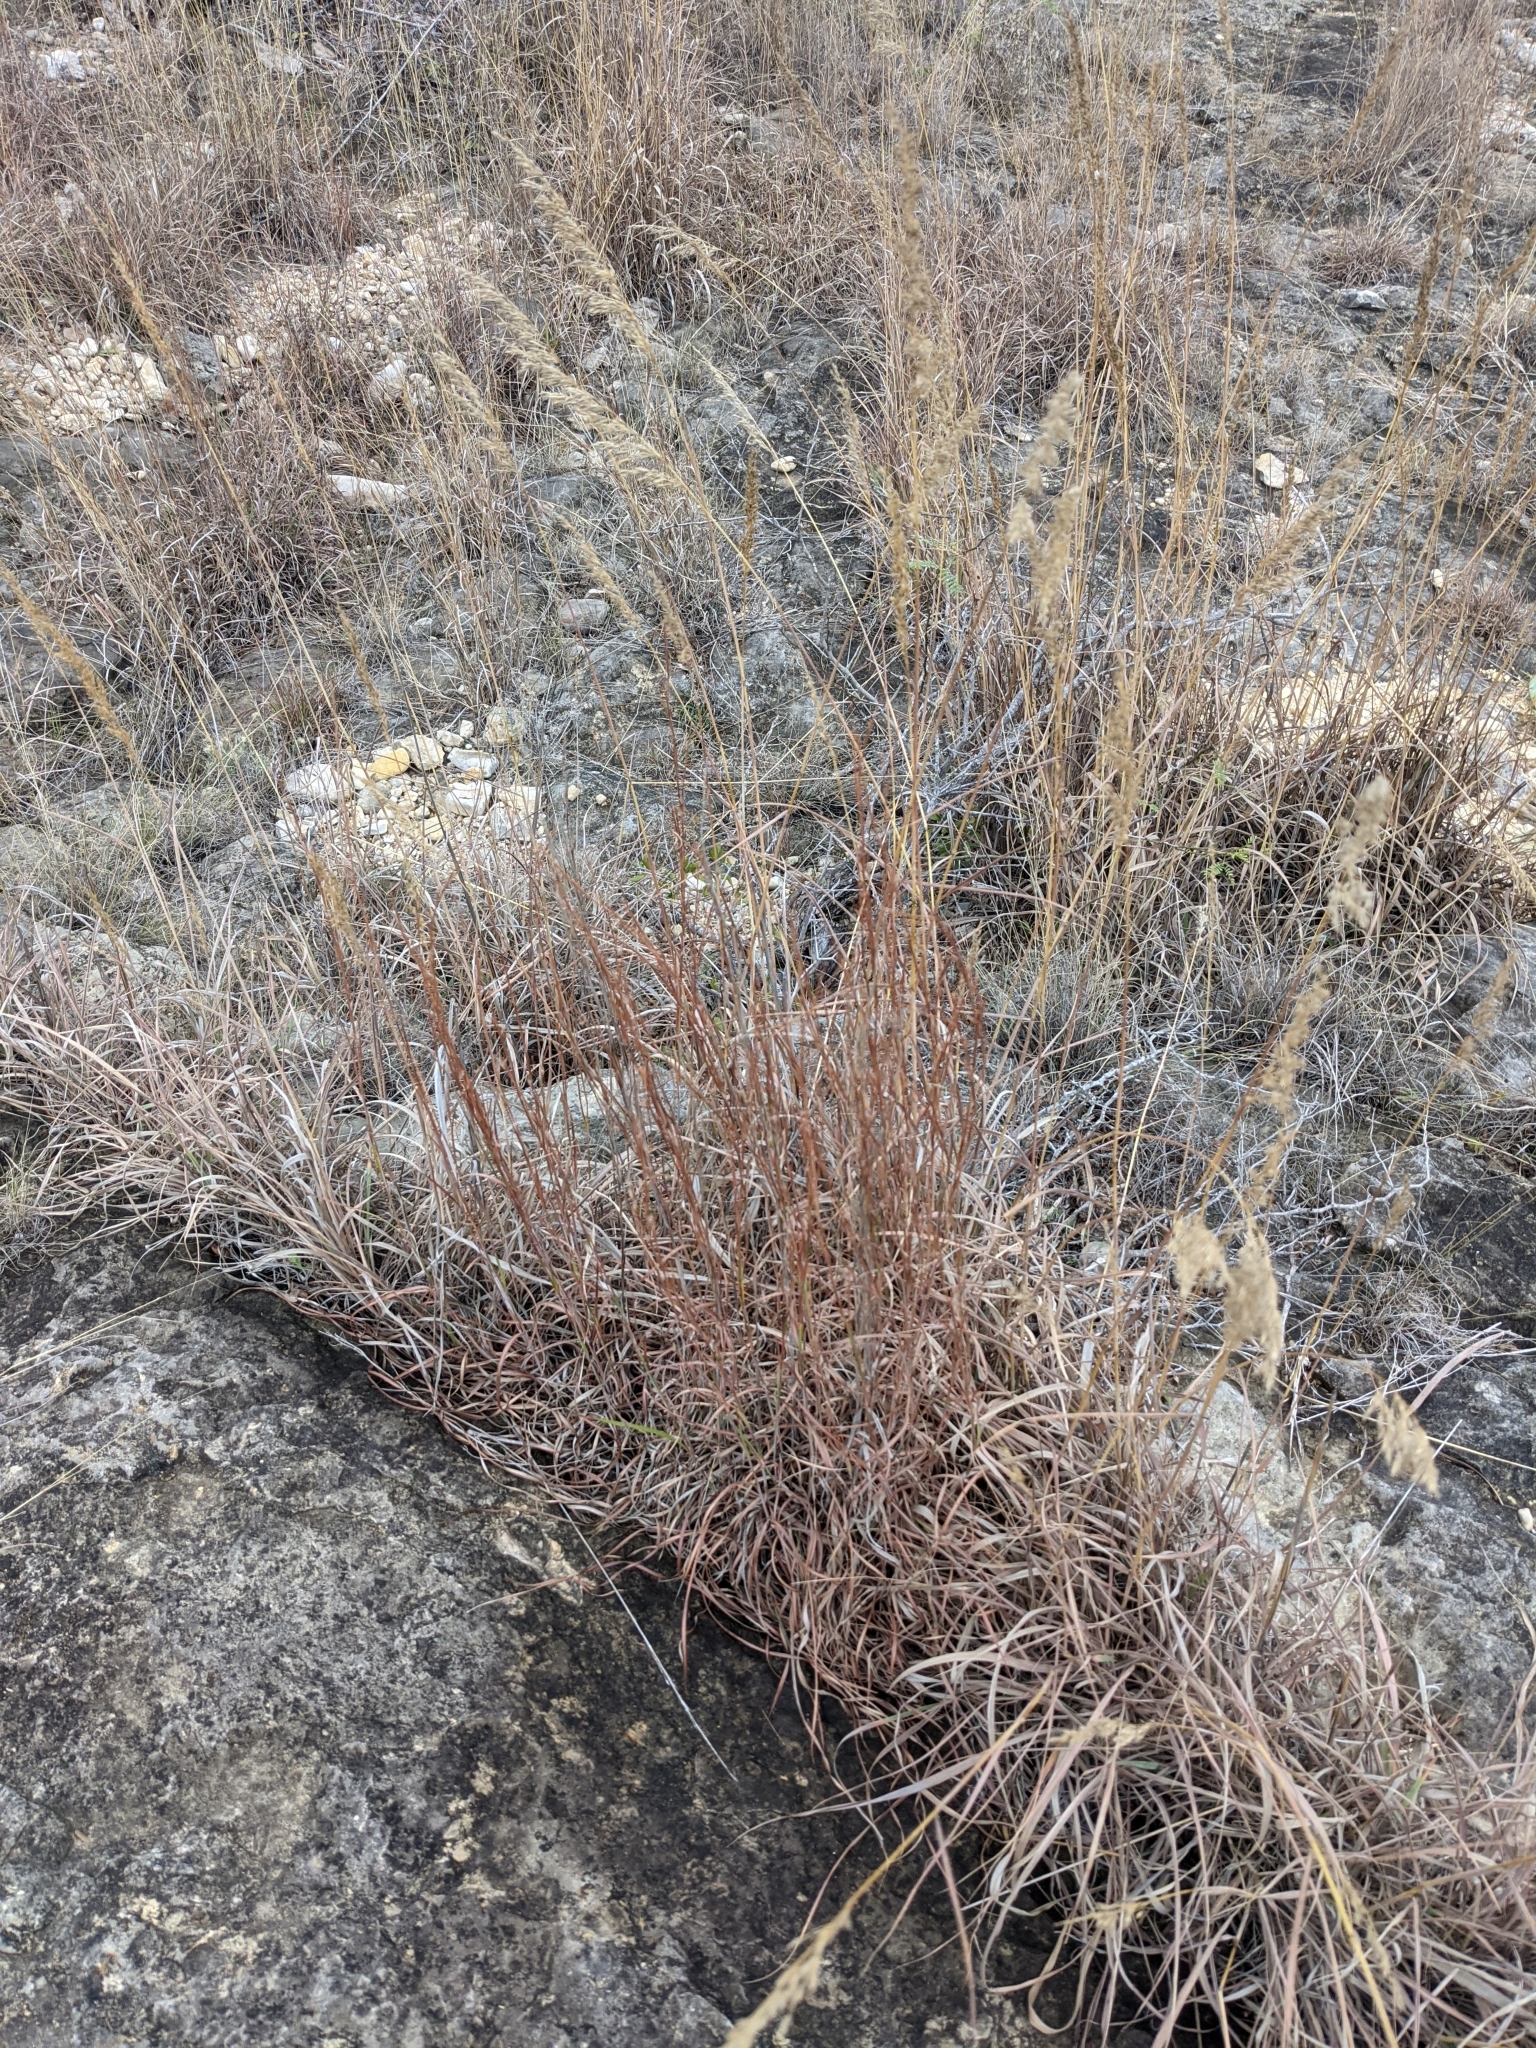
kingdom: Plantae
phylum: Tracheophyta
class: Liliopsida
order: Poales
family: Poaceae
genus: Schizachyrium
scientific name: Schizachyrium scoparium
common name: Little bluestem
